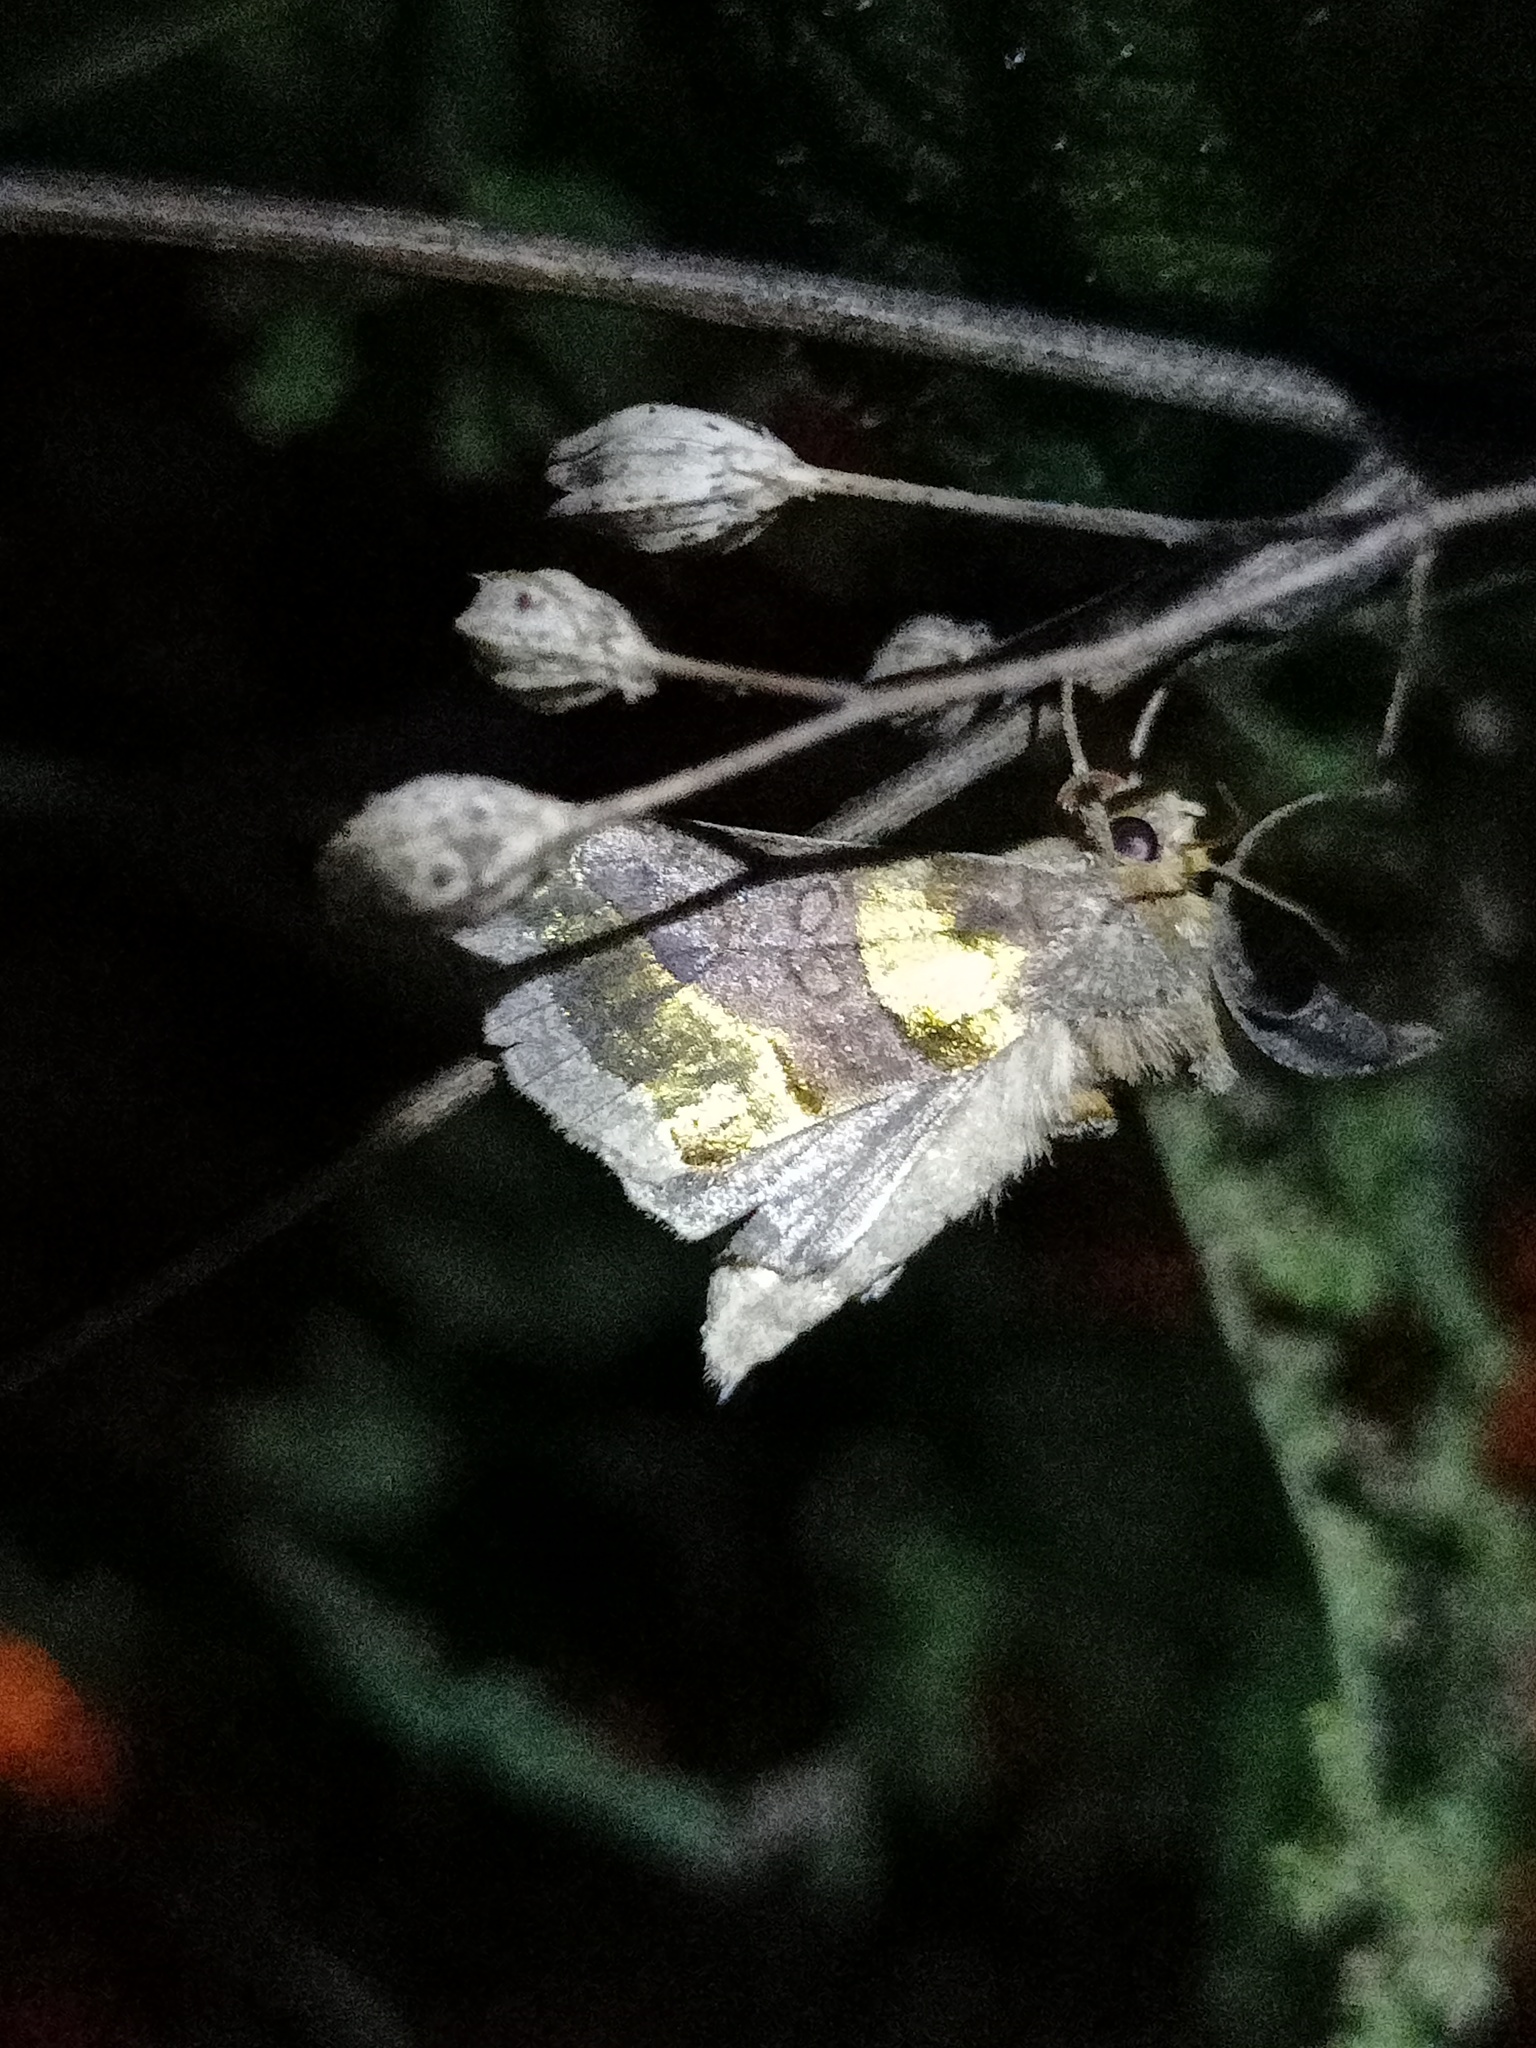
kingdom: Animalia
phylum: Arthropoda
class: Insecta
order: Lepidoptera
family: Noctuidae
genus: Diachrysia
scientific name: Diachrysia chrysitis
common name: Burnished brass
